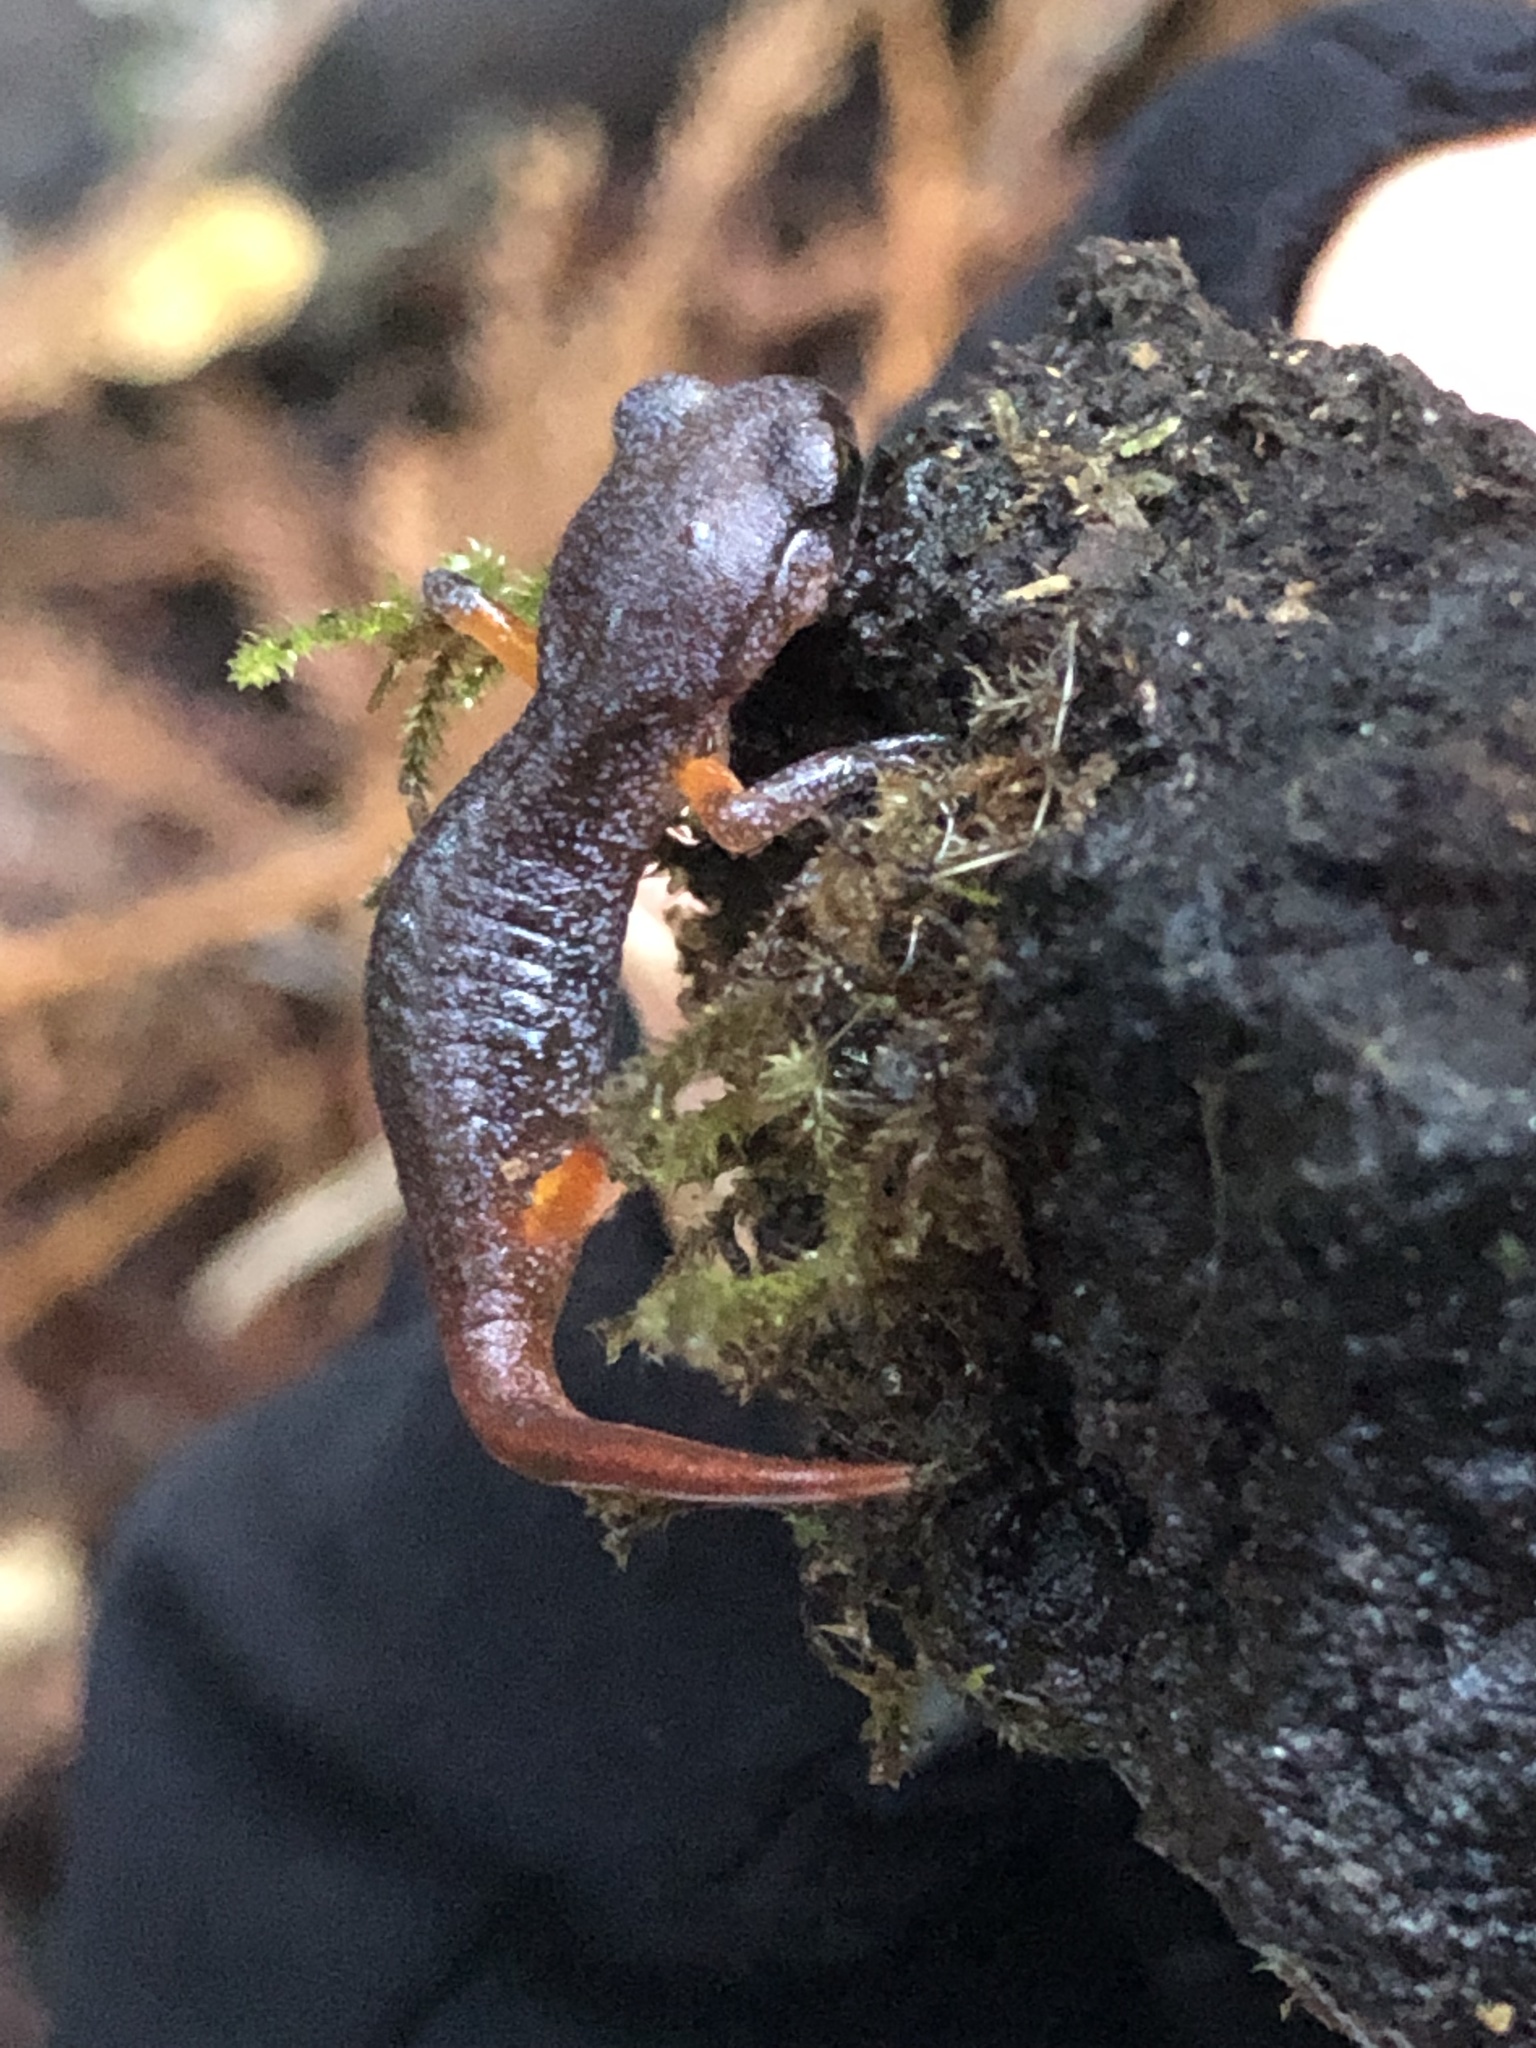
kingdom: Animalia
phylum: Chordata
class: Amphibia
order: Caudata
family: Plethodontidae
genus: Ensatina
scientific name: Ensatina eschscholtzii
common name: Ensatina
